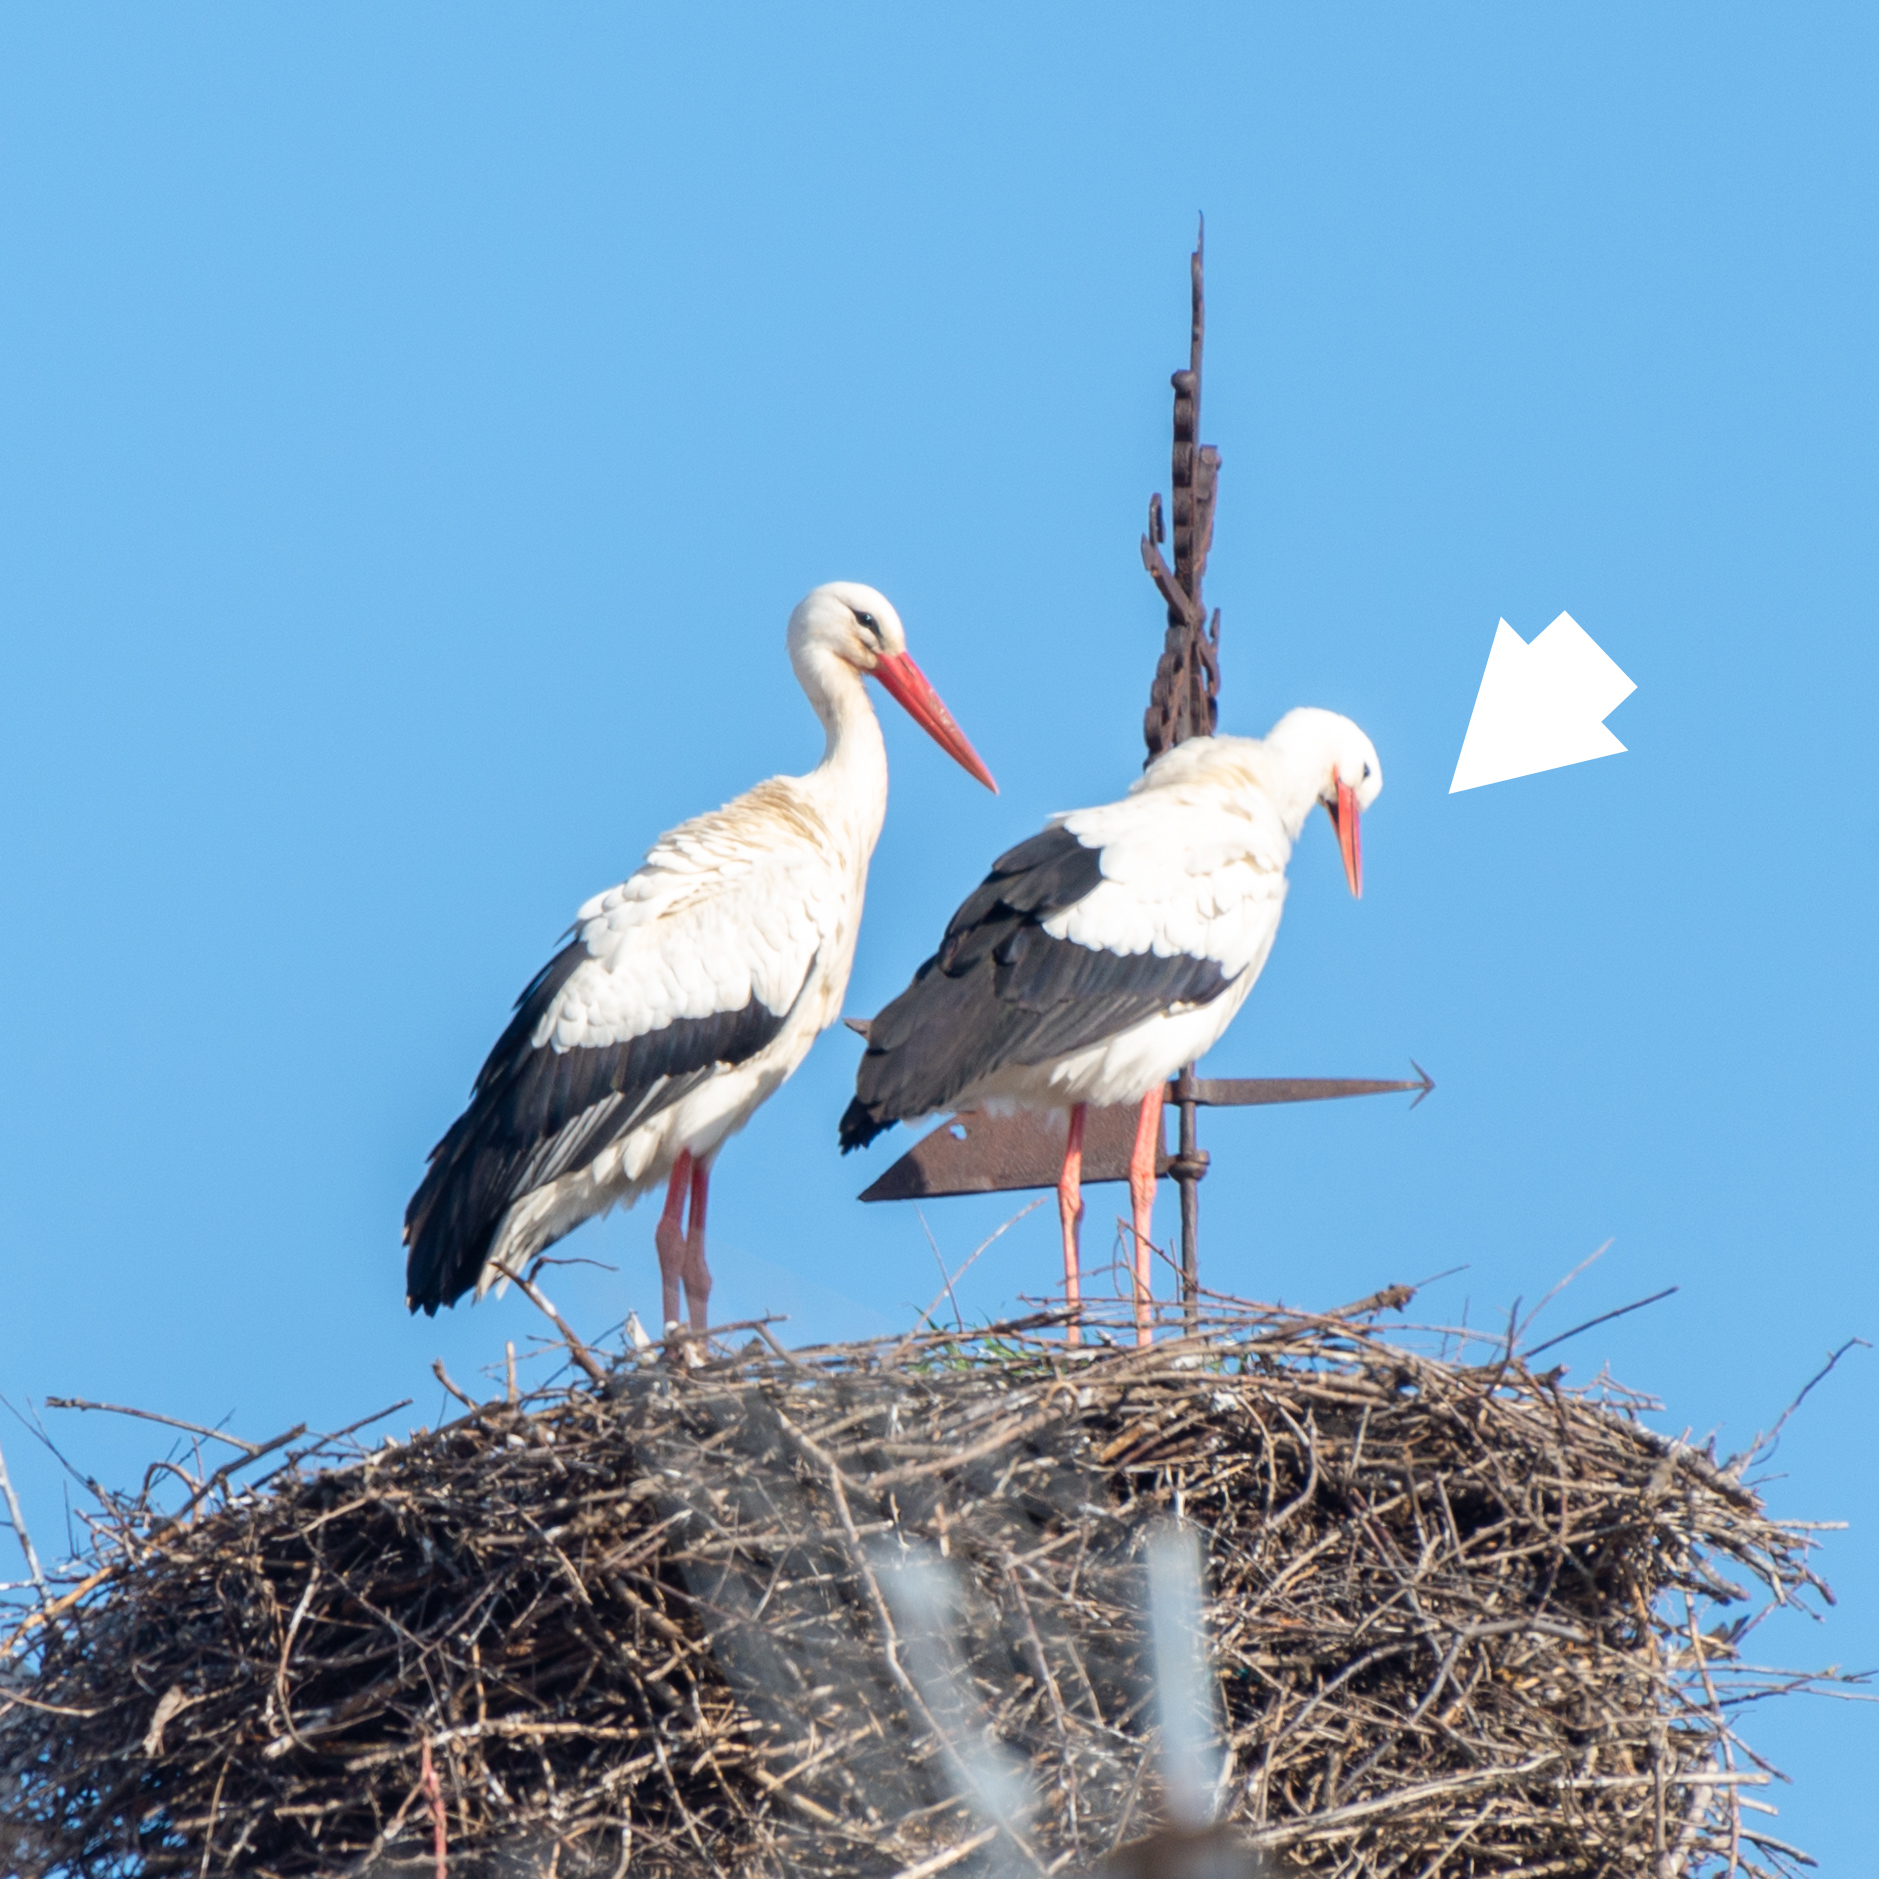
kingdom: Animalia
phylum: Chordata
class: Aves
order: Ciconiiformes
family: Ciconiidae
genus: Ciconia
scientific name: Ciconia ciconia
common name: White stork
